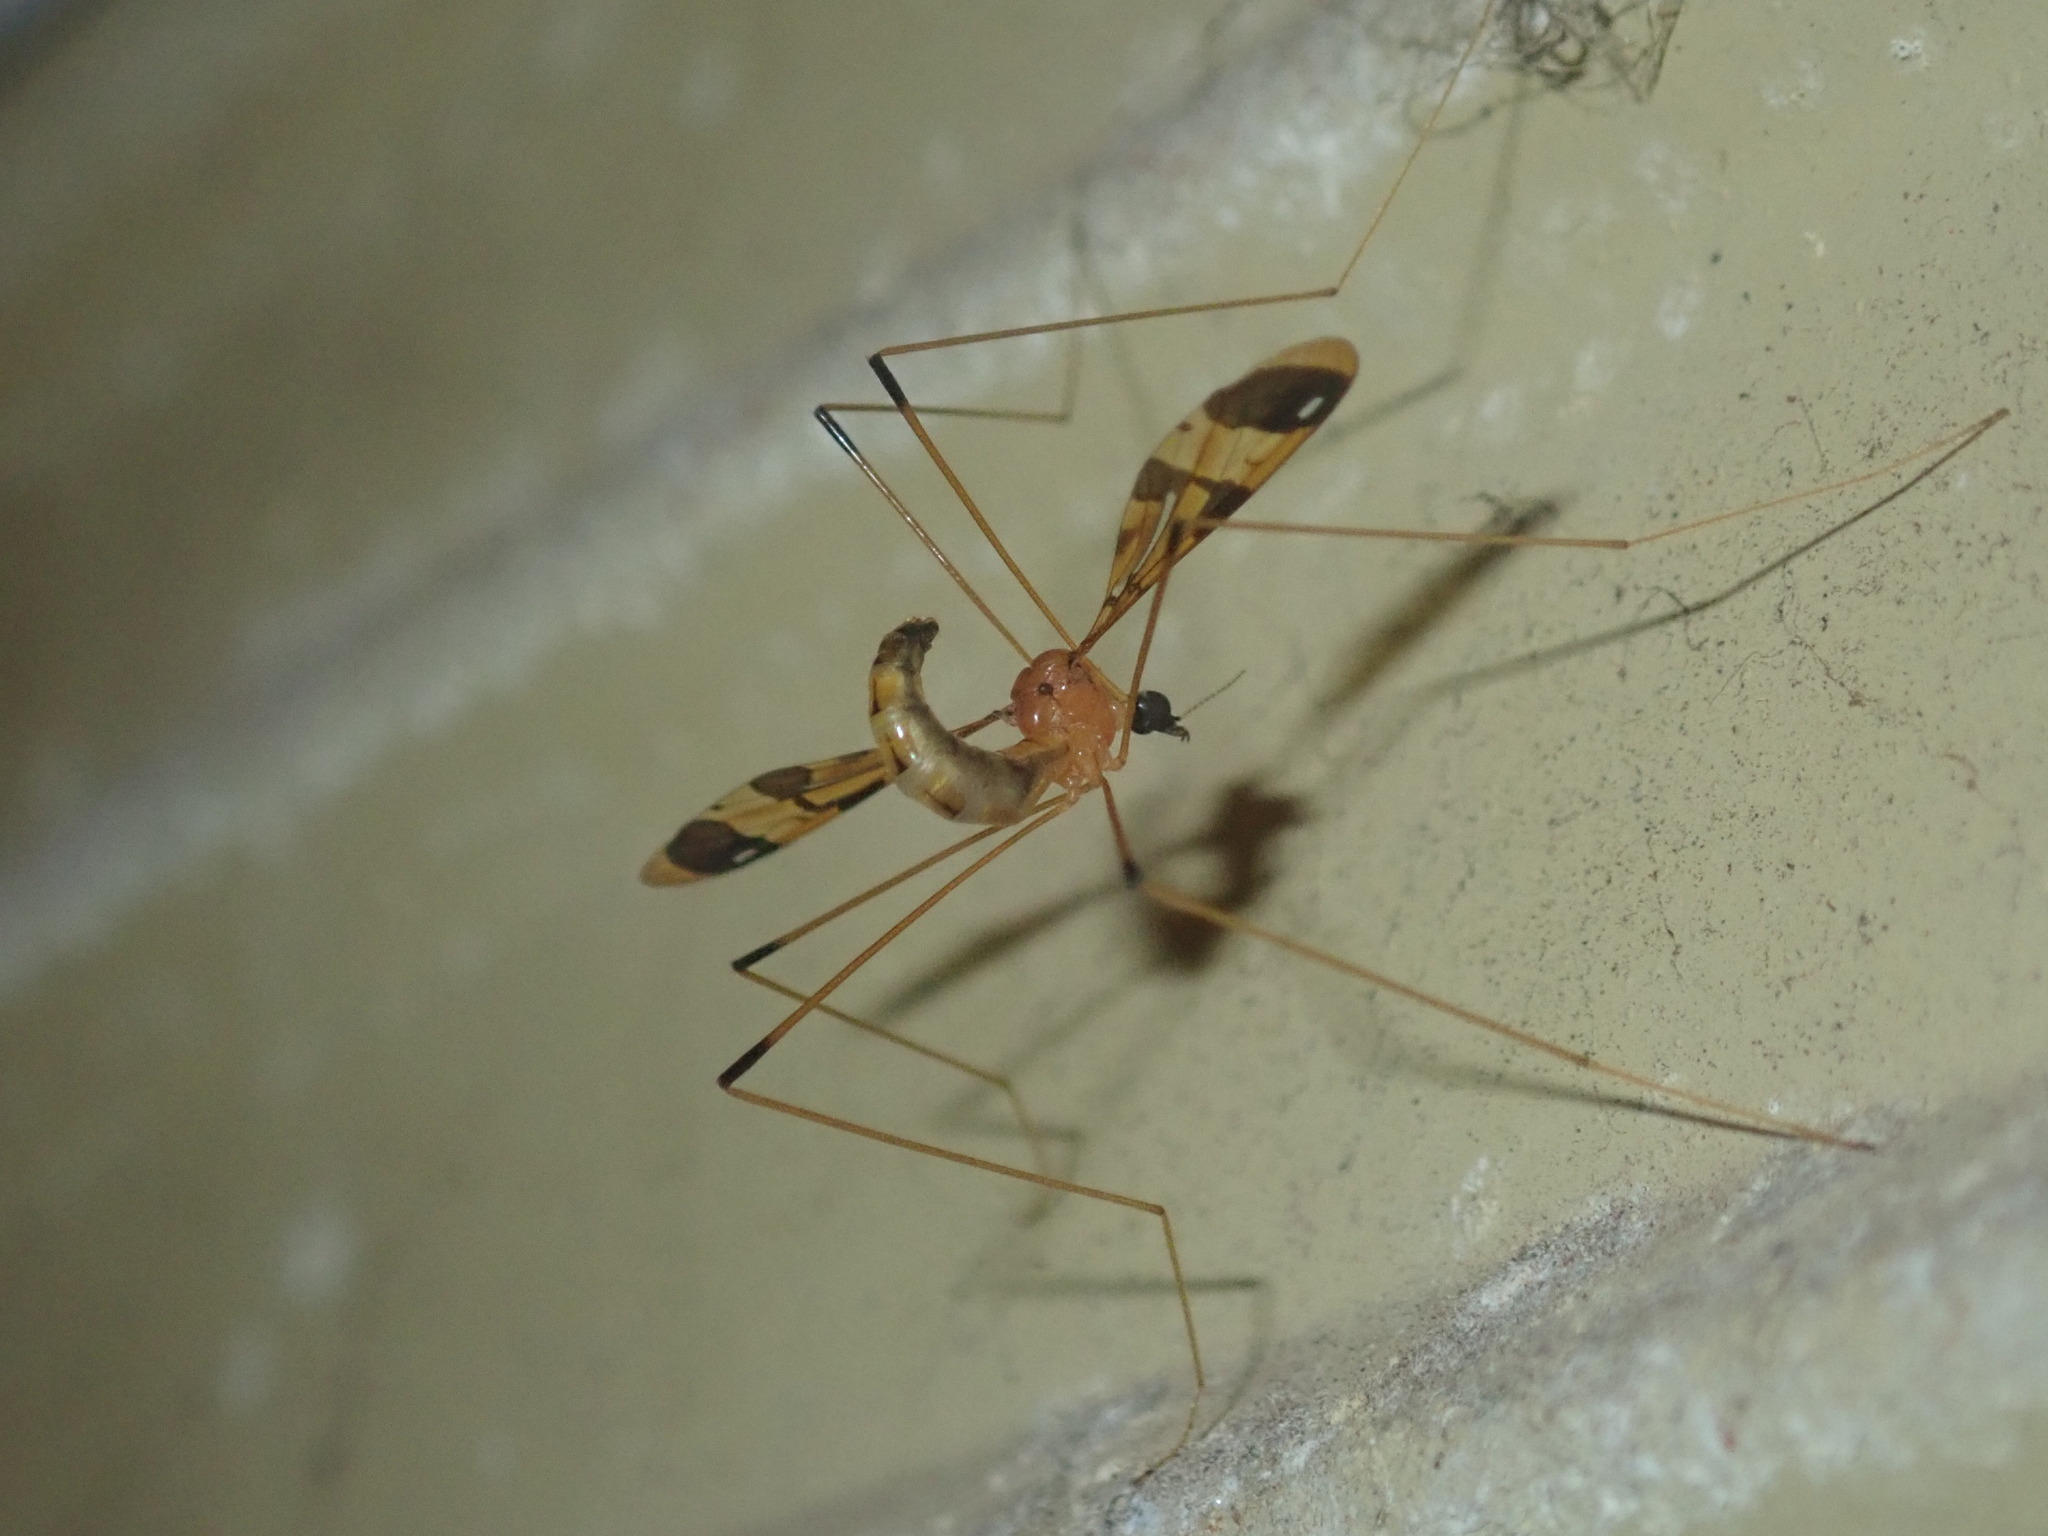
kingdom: Animalia
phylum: Arthropoda
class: Insecta
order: Diptera
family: Limoniidae
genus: Dapanoptera
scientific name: Dapanoptera richmondiana
